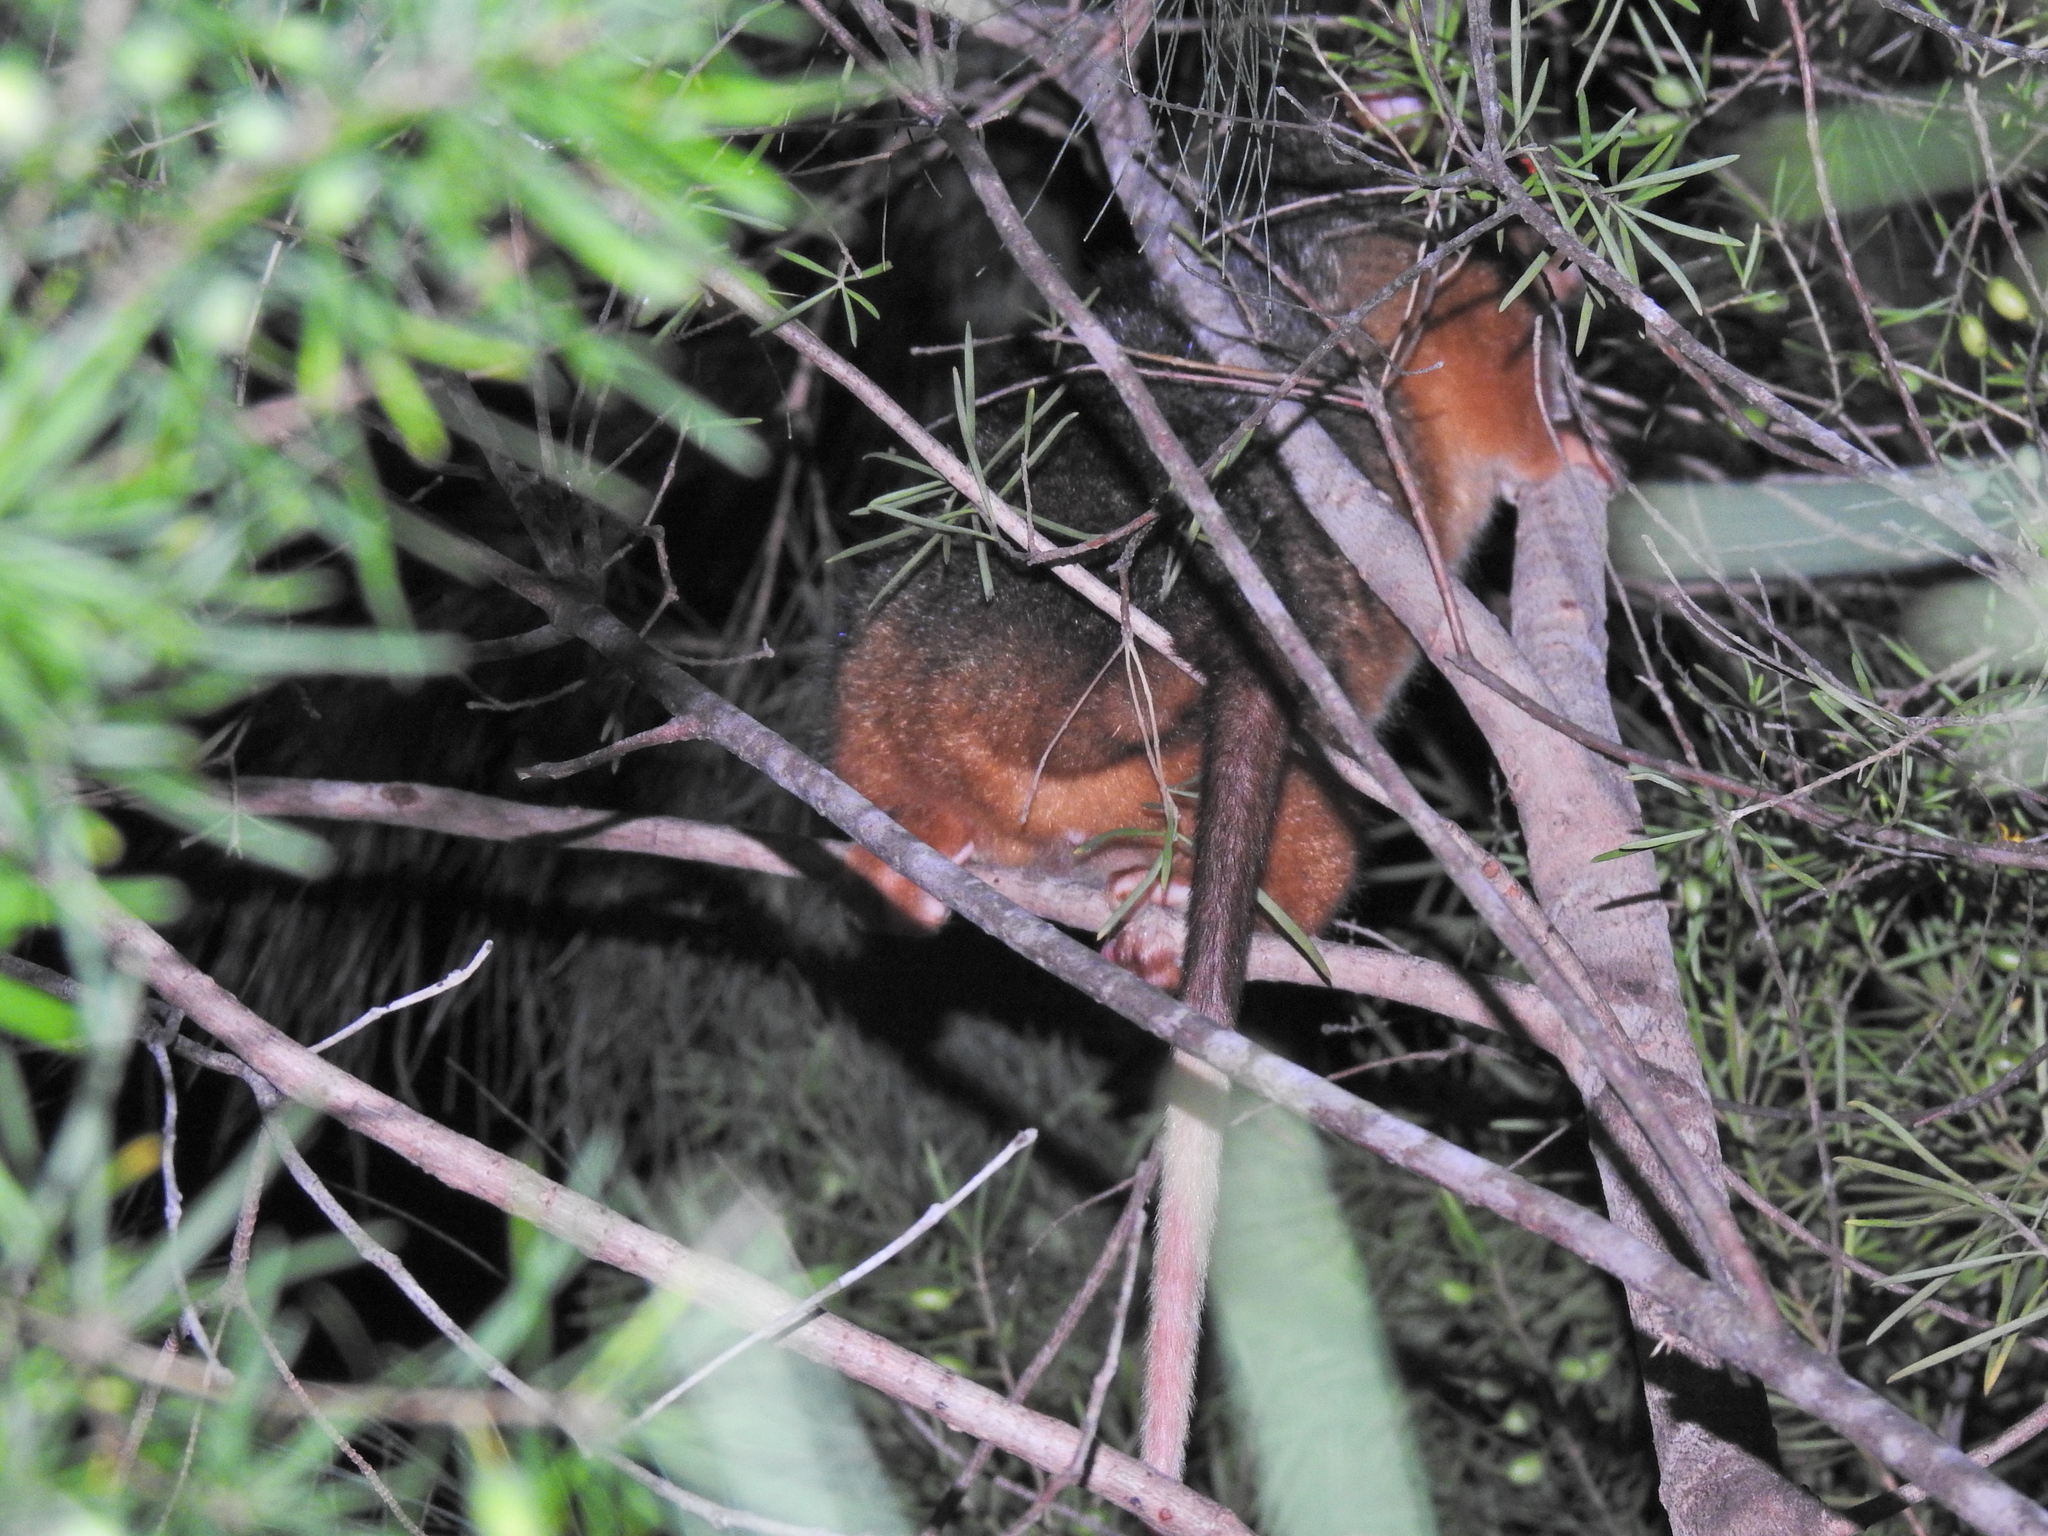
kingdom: Animalia
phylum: Chordata
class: Mammalia
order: Diprotodontia
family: Pseudocheiridae
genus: Pseudocheirus
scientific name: Pseudocheirus peregrinus
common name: Common ringtail possum
